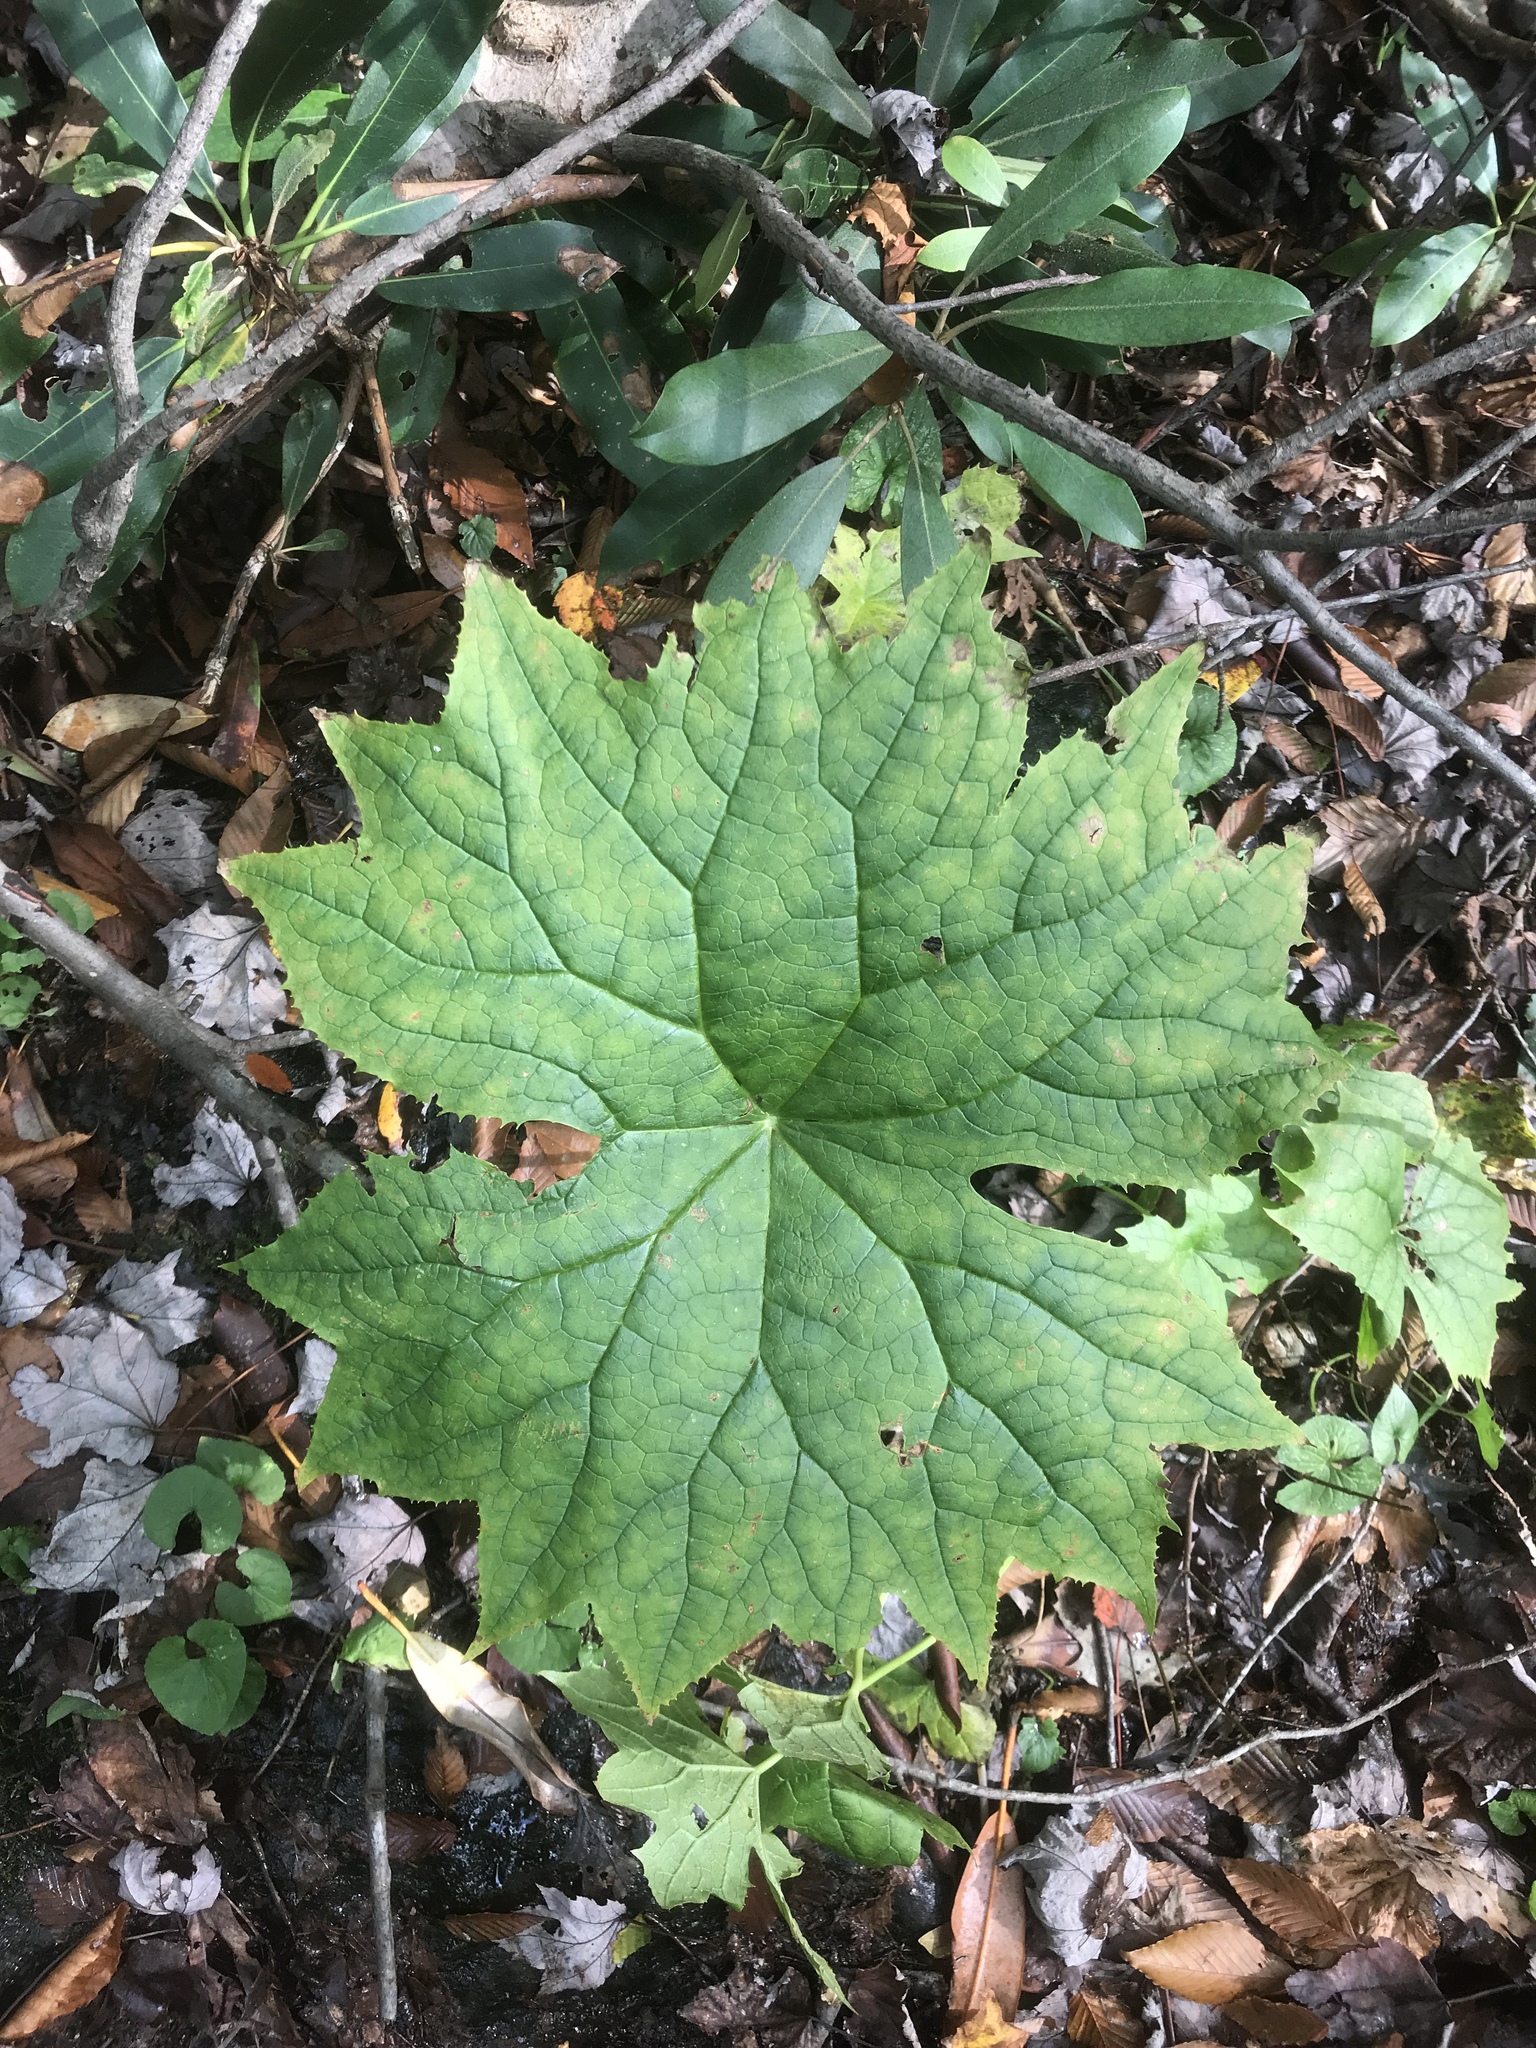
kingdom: Plantae
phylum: Tracheophyta
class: Magnoliopsida
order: Ranunculales
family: Berberidaceae
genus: Diphylleia
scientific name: Diphylleia cymosa
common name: Umbrella-leaf
